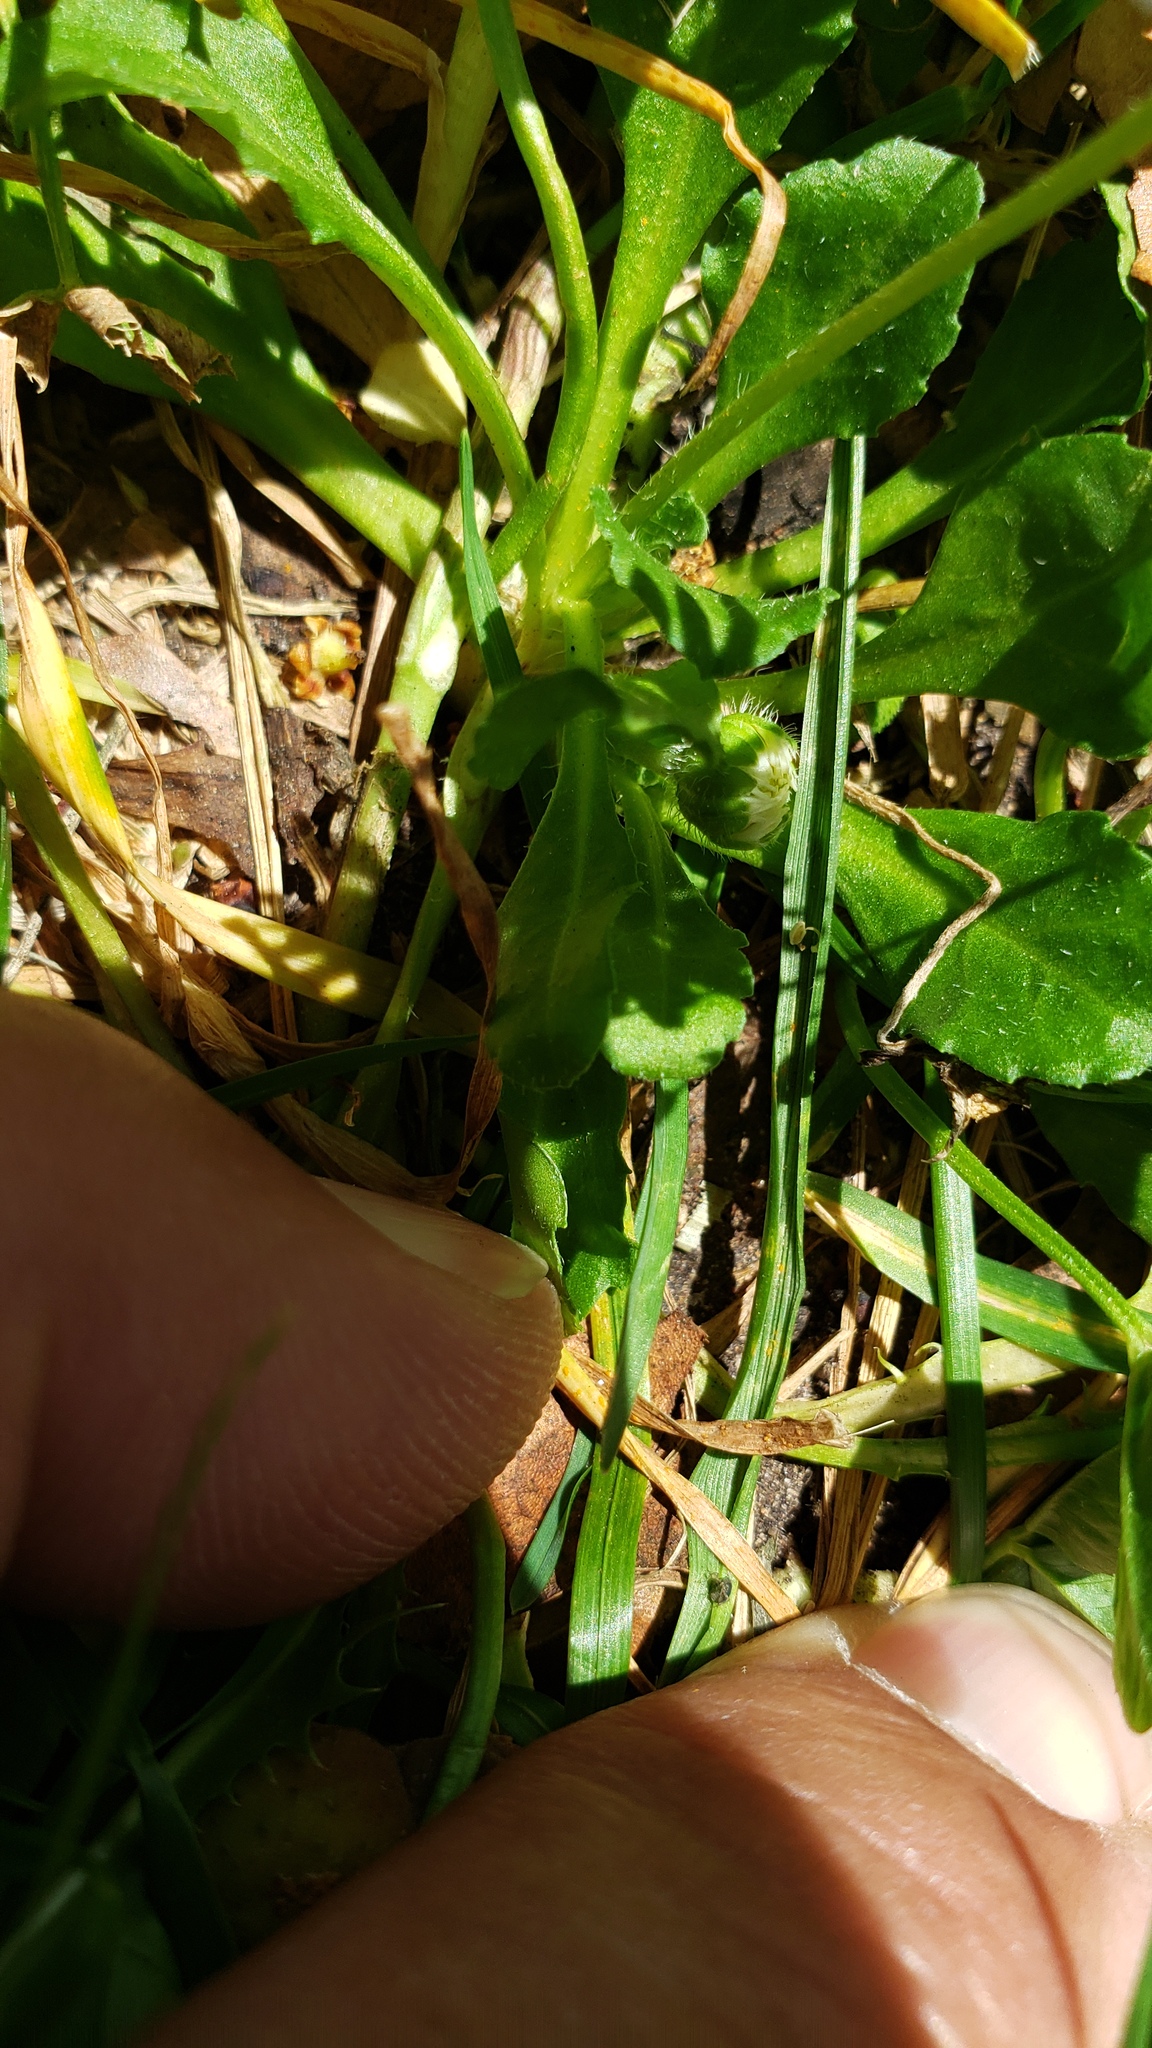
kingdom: Plantae
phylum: Tracheophyta
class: Magnoliopsida
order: Asterales
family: Asteraceae
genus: Bellis
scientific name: Bellis perennis
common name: Lawndaisy
